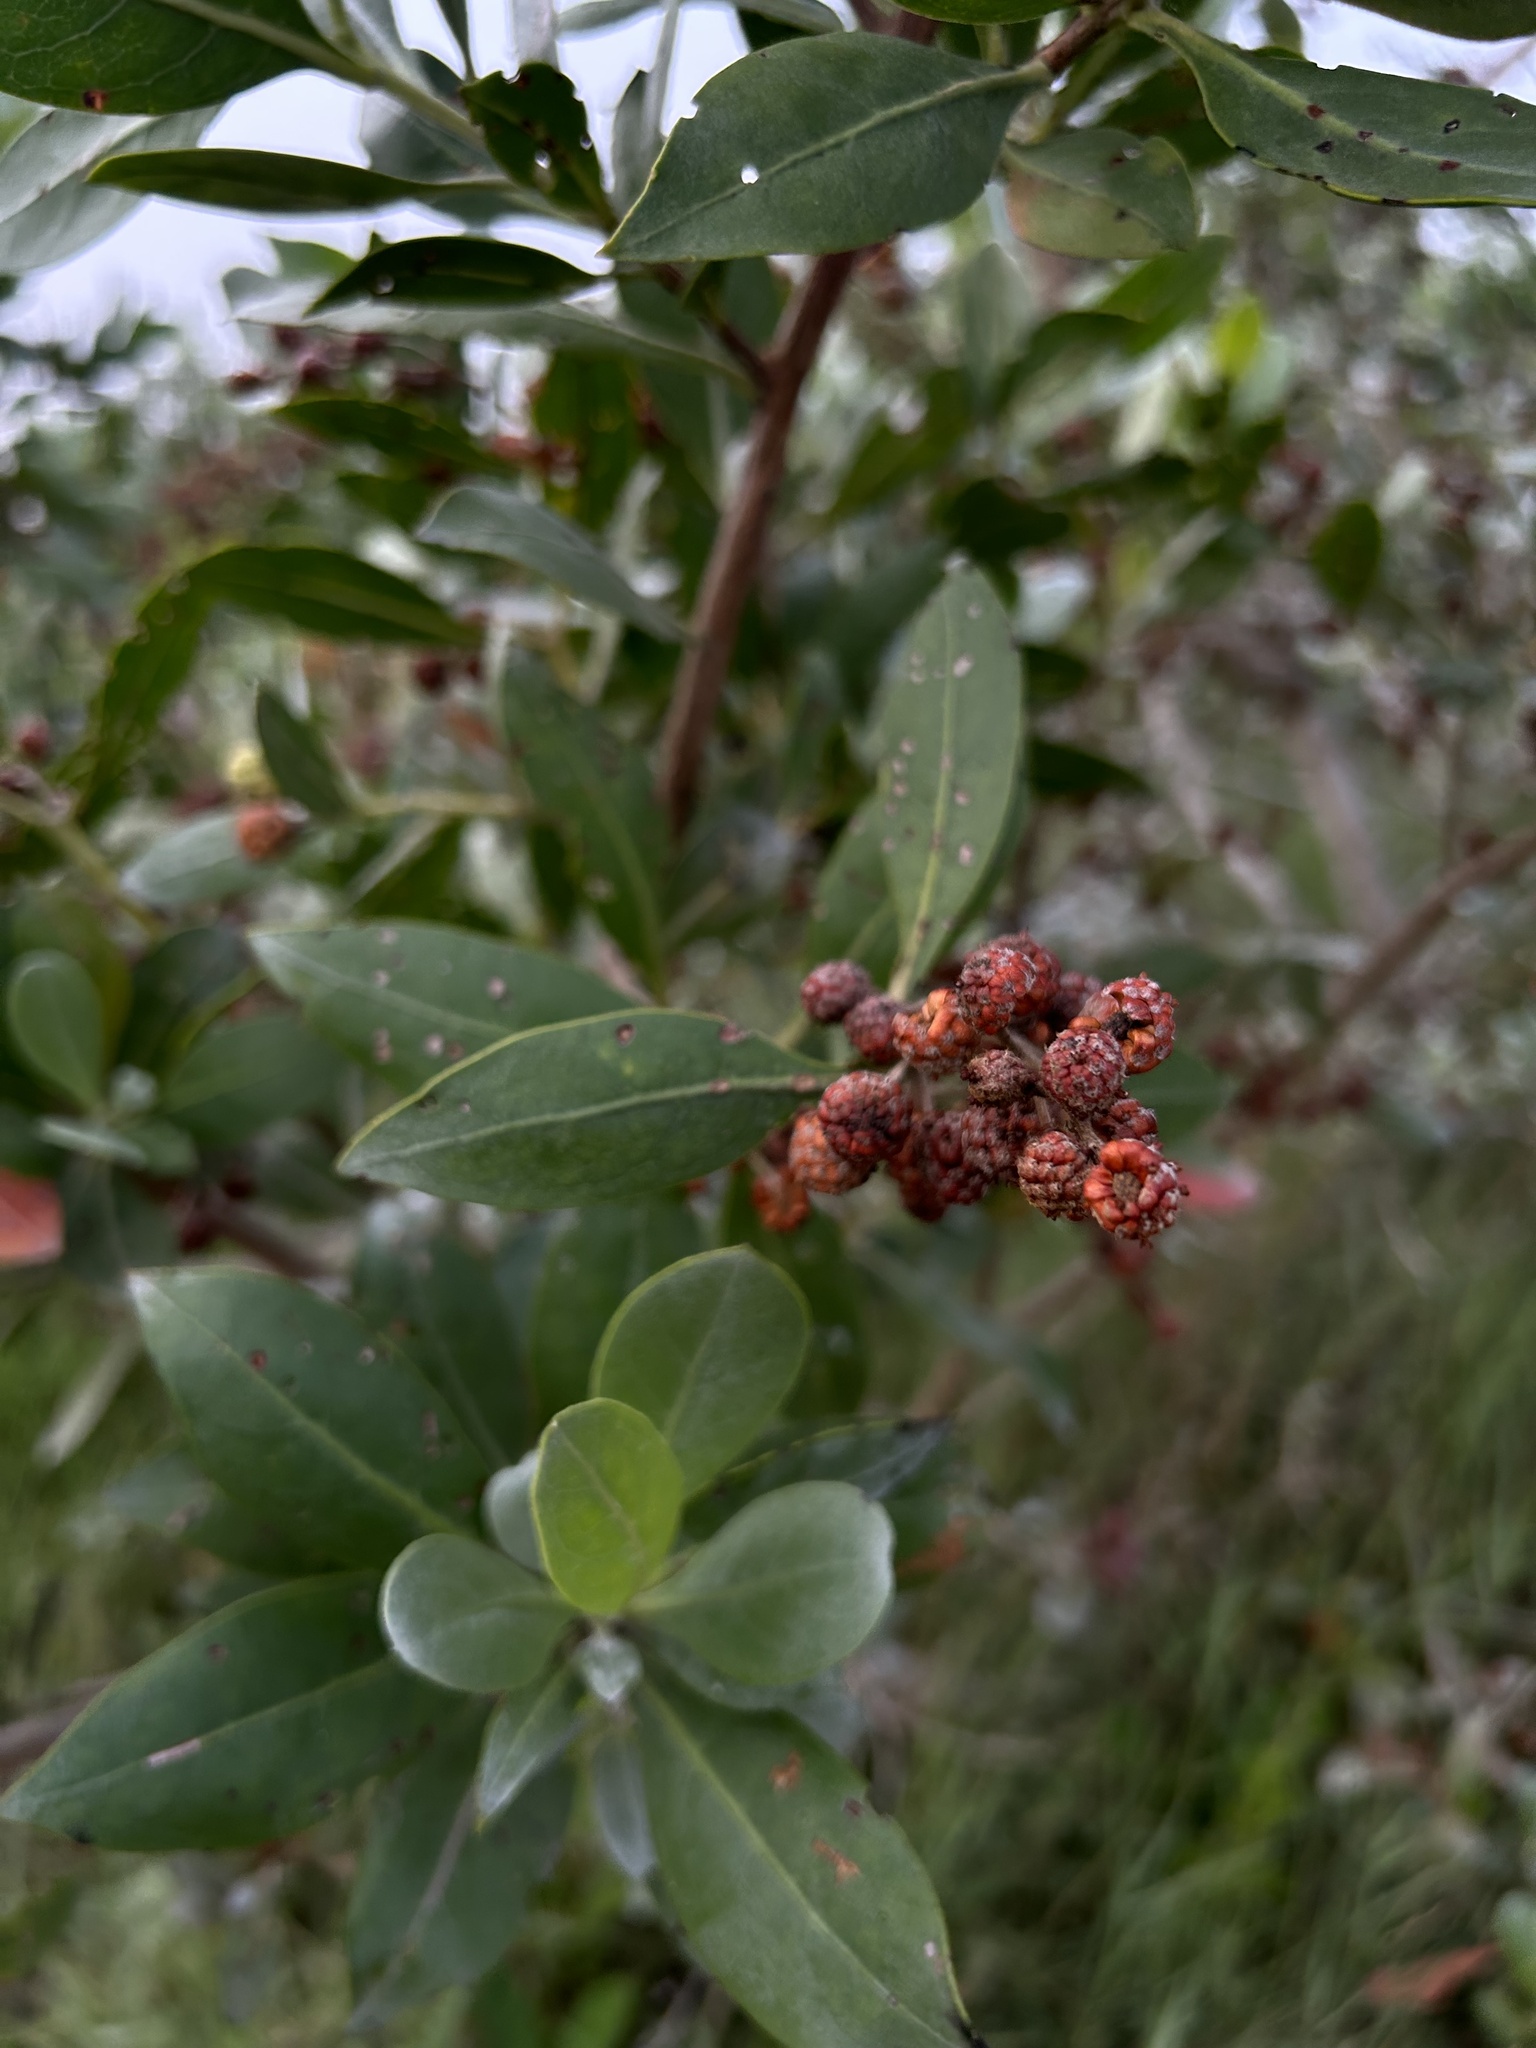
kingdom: Plantae
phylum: Tracheophyta
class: Magnoliopsida
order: Myrtales
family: Combretaceae
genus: Conocarpus
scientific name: Conocarpus erectus
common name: Button mangrove
